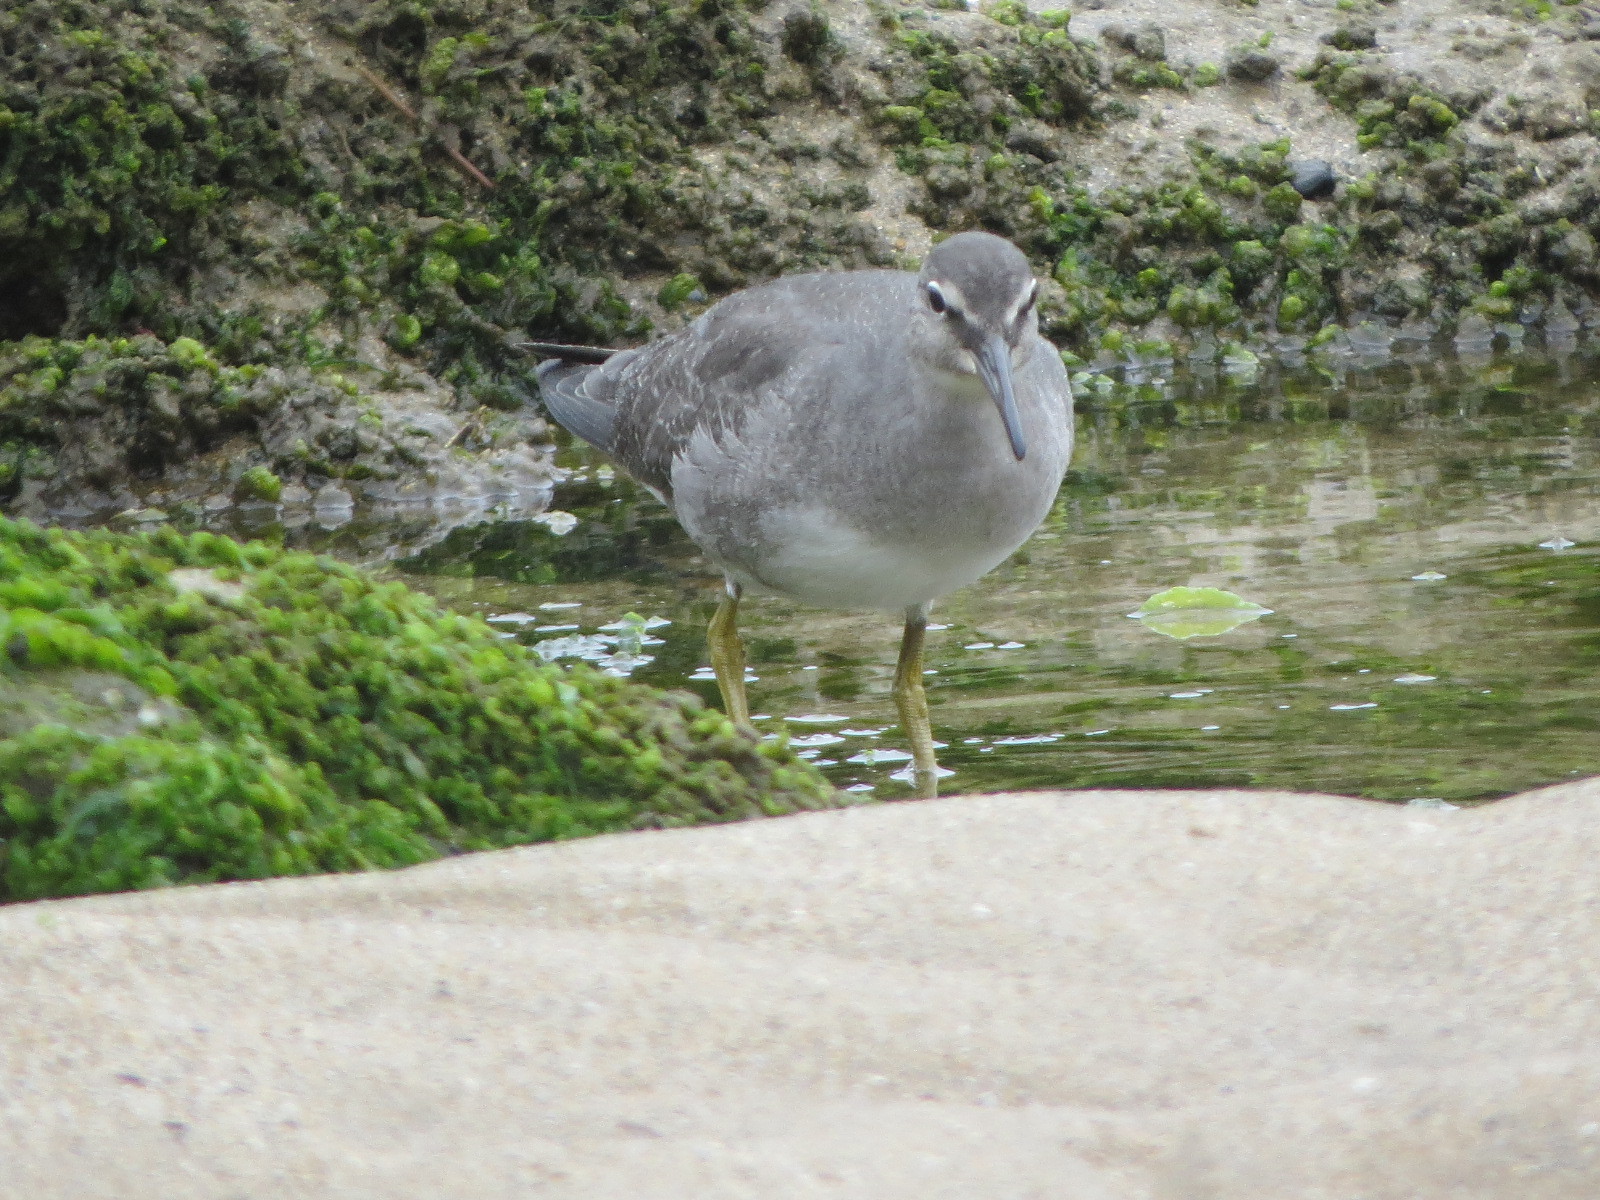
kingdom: Animalia
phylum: Chordata
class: Aves
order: Charadriiformes
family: Scolopacidae
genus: Tringa
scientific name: Tringa incana
